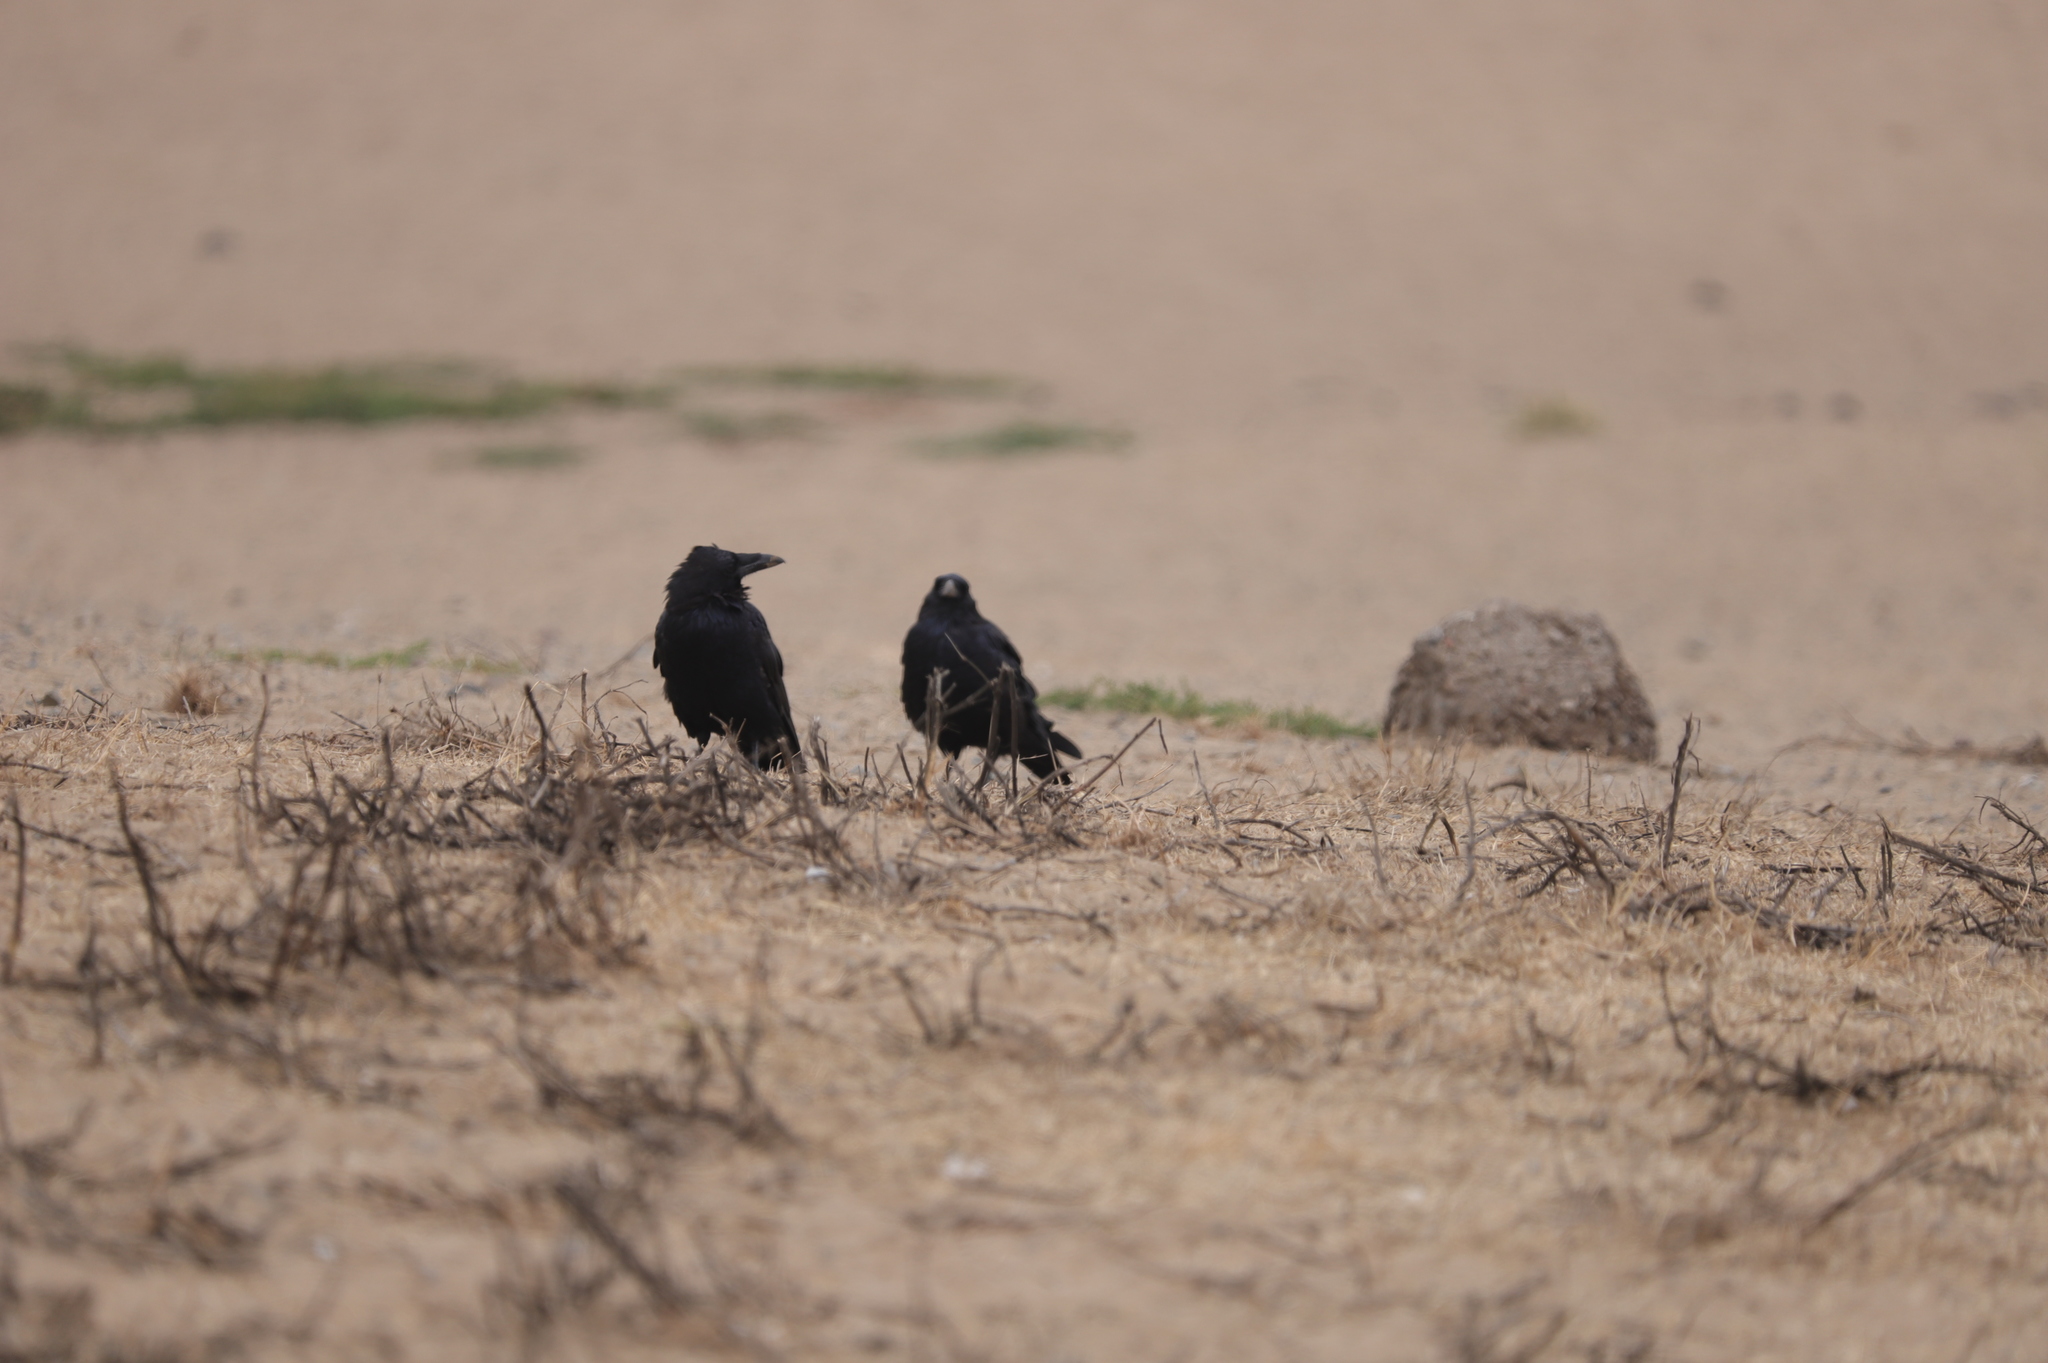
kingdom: Animalia
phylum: Chordata
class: Aves
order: Passeriformes
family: Corvidae
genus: Corvus
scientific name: Corvus corax
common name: Common raven
